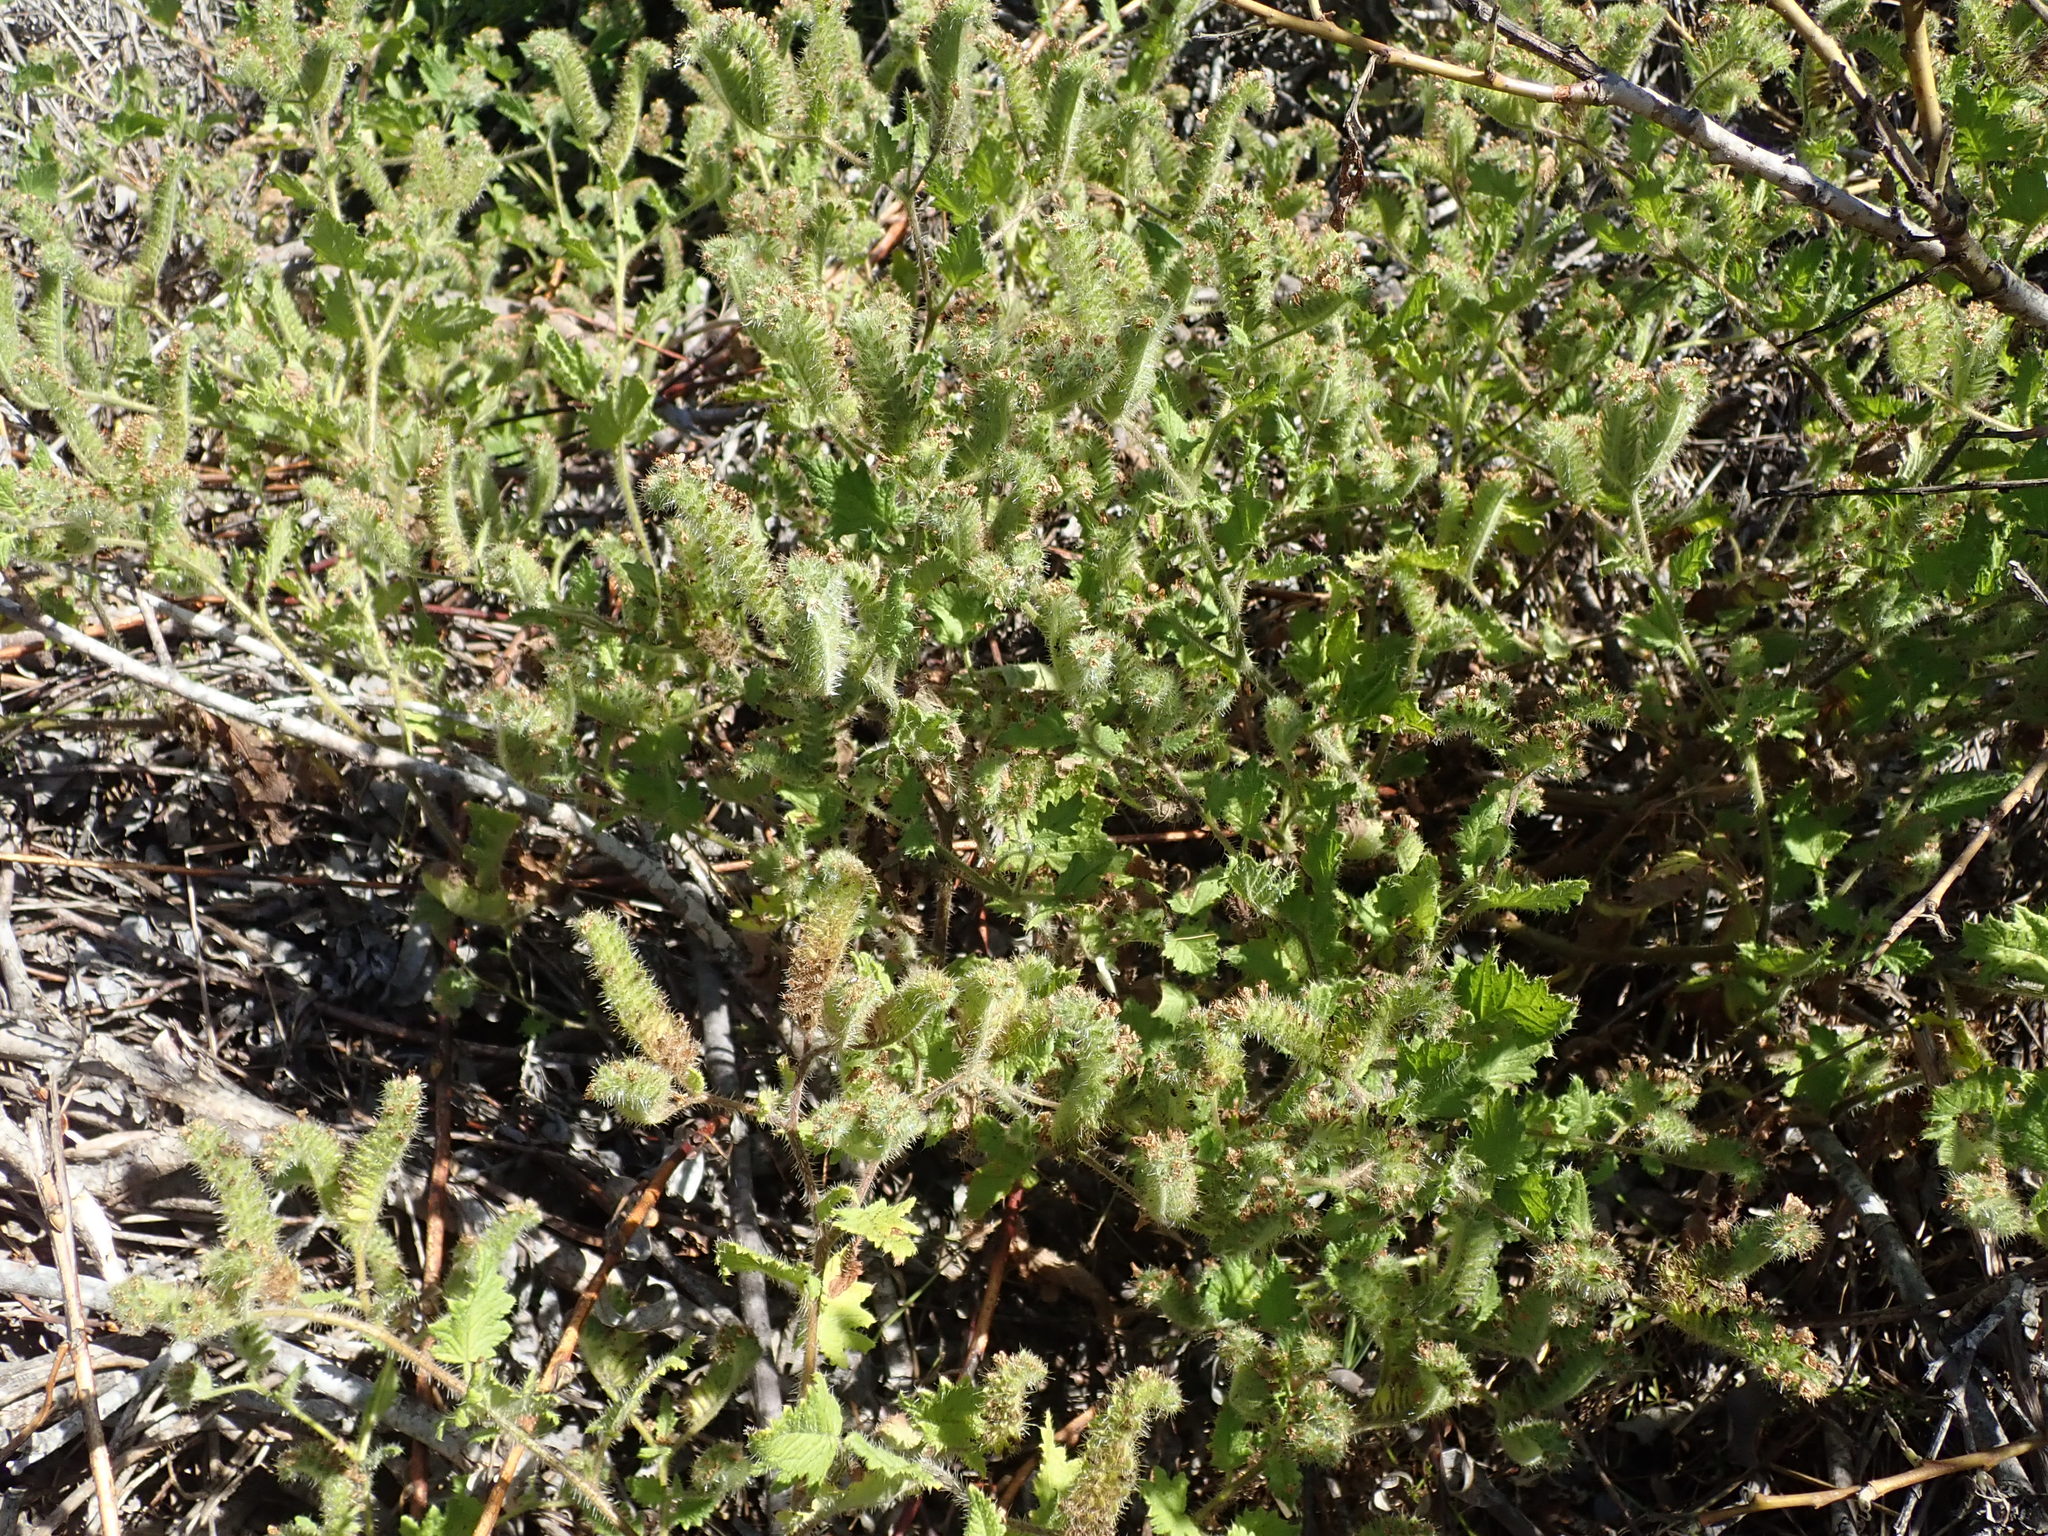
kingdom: Plantae
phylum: Tracheophyta
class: Magnoliopsida
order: Boraginales
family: Hydrophyllaceae
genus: Phacelia
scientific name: Phacelia malvifolia
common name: Mallow-leaf phacelia
